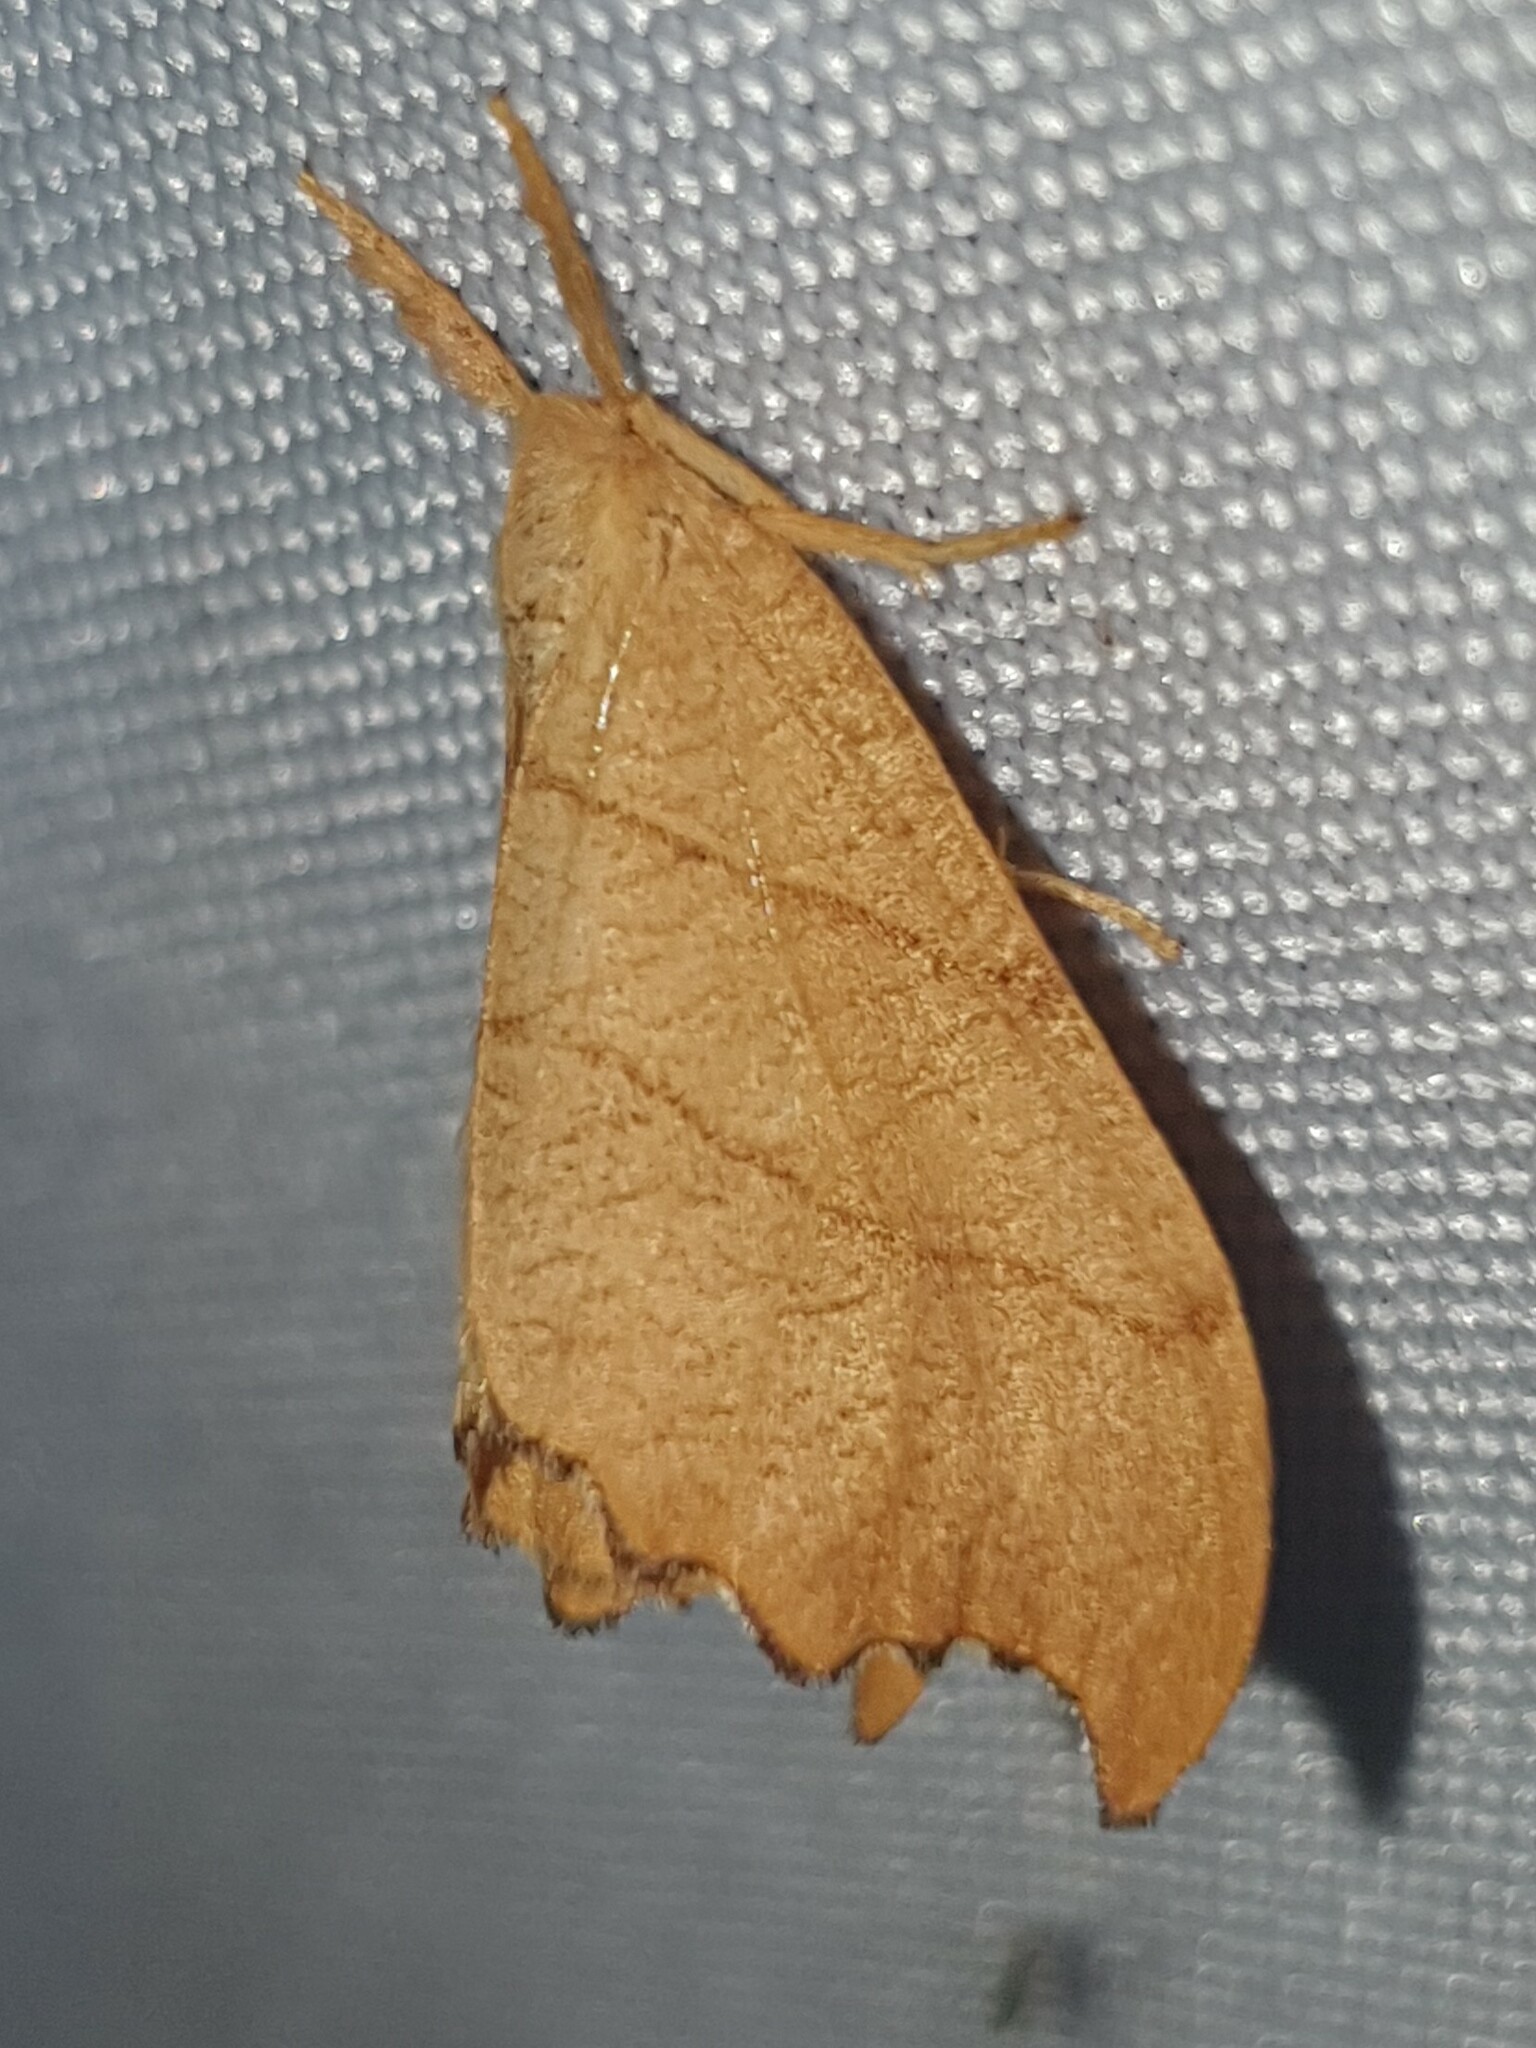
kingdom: Animalia
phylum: Arthropoda
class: Insecta
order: Lepidoptera
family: Drepanidae
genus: Falcaria
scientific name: Falcaria lacertinaria
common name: Scalloped hook-tip
